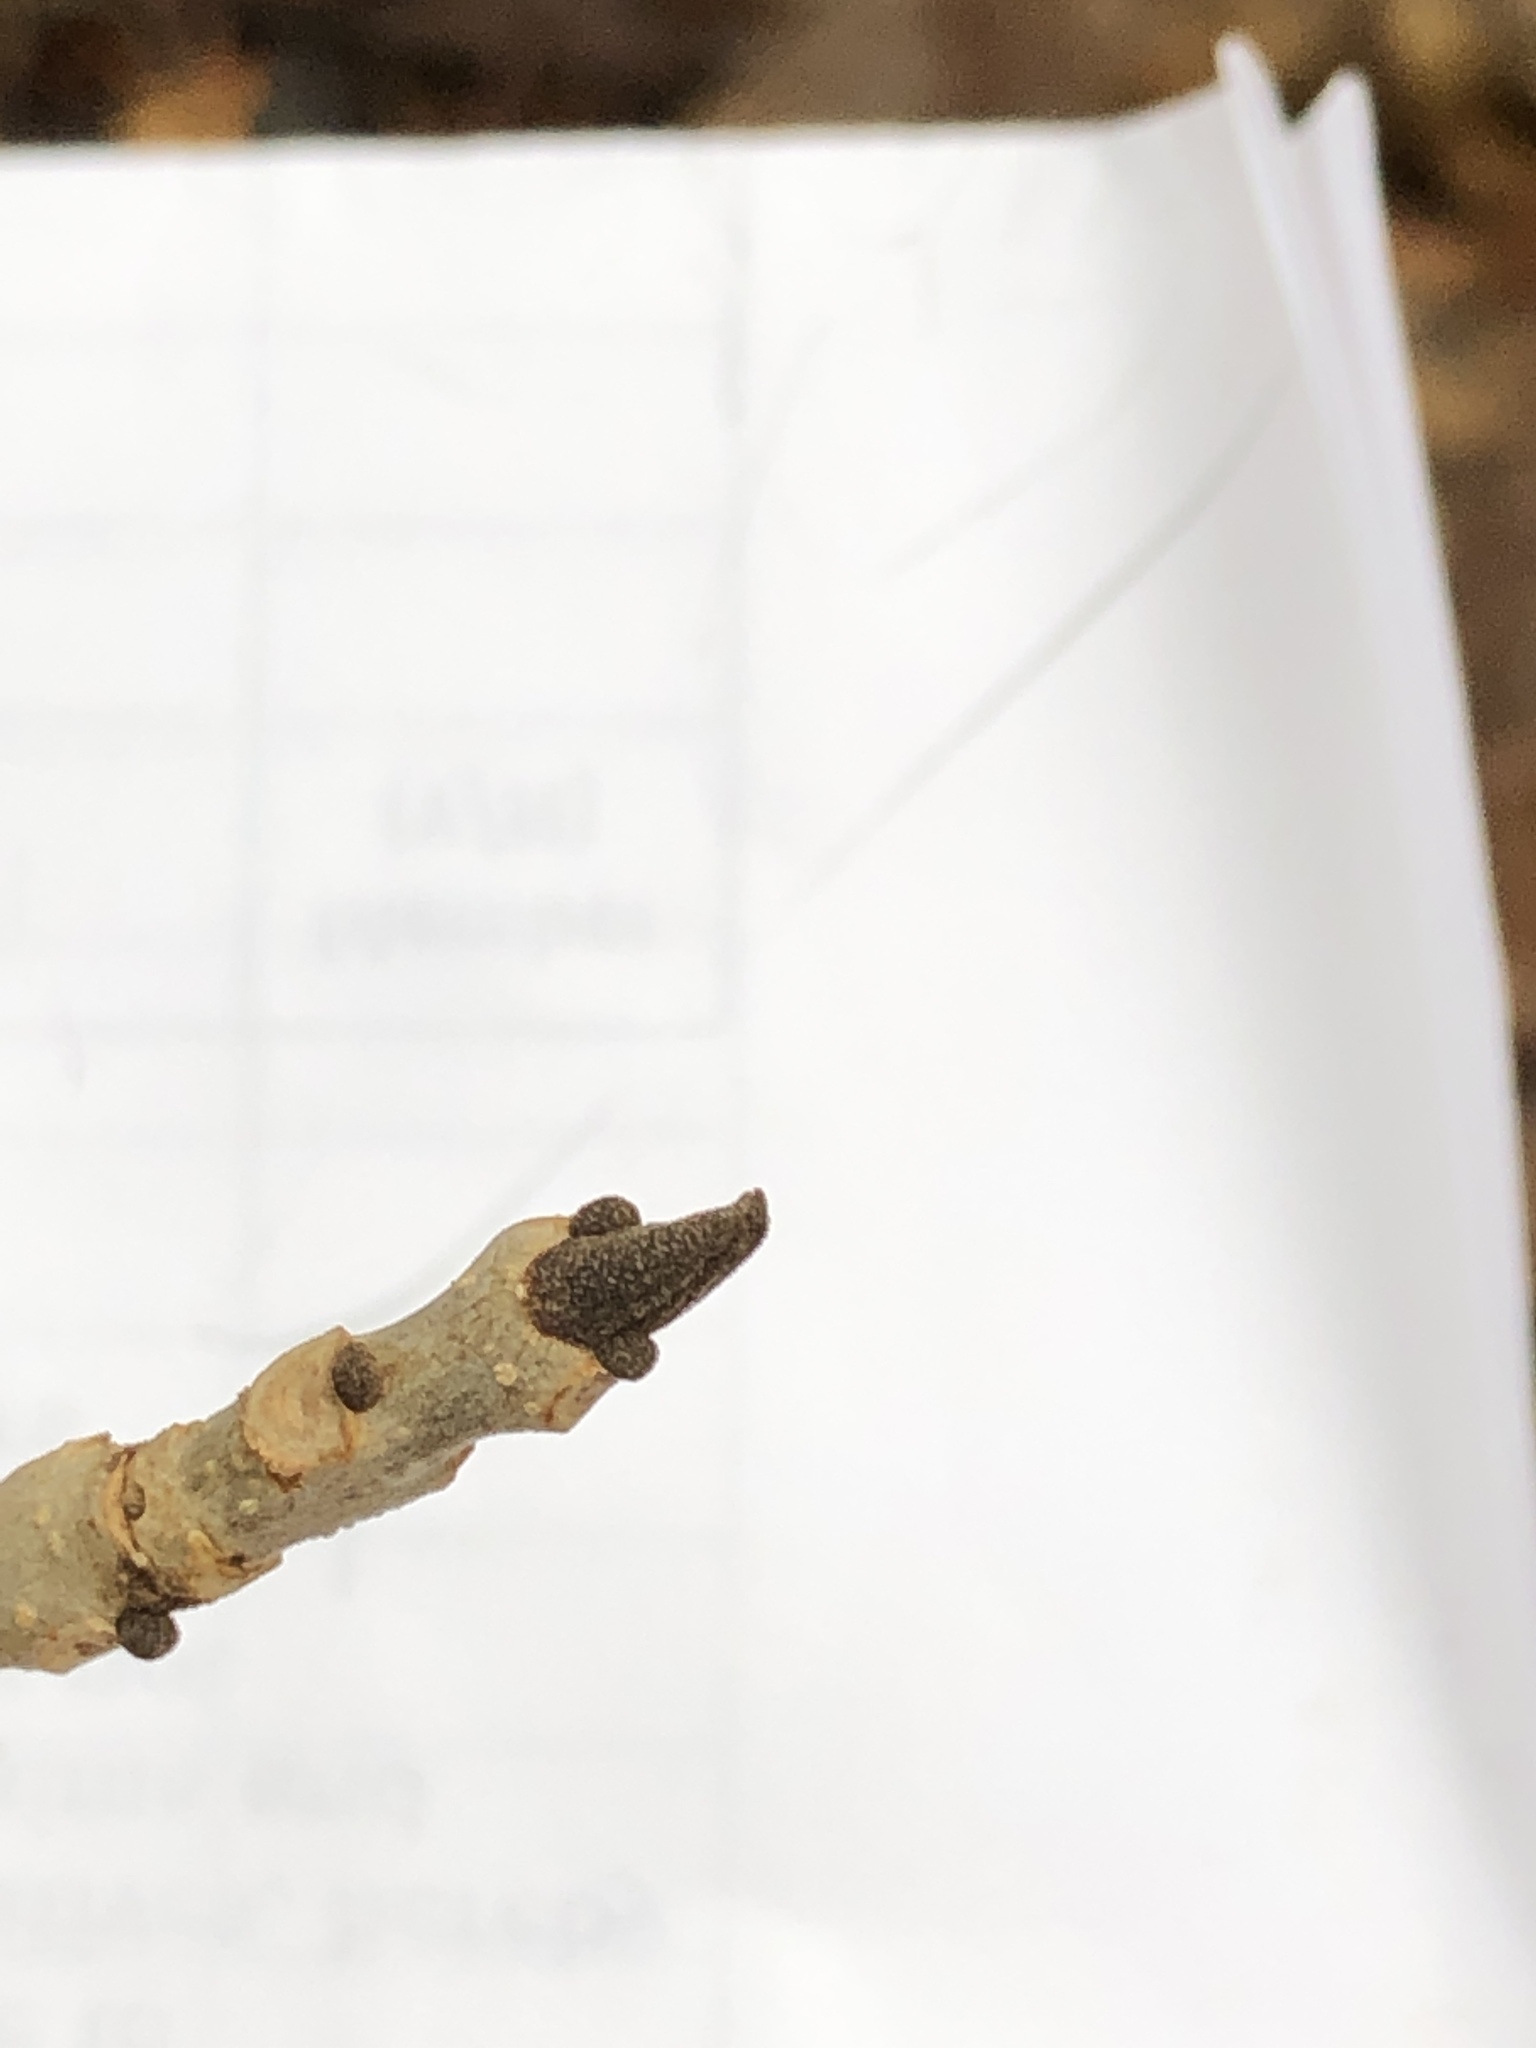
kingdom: Plantae
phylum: Tracheophyta
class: Magnoliopsida
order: Lamiales
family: Oleaceae
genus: Fraxinus
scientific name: Fraxinus nigra
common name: Black ash
